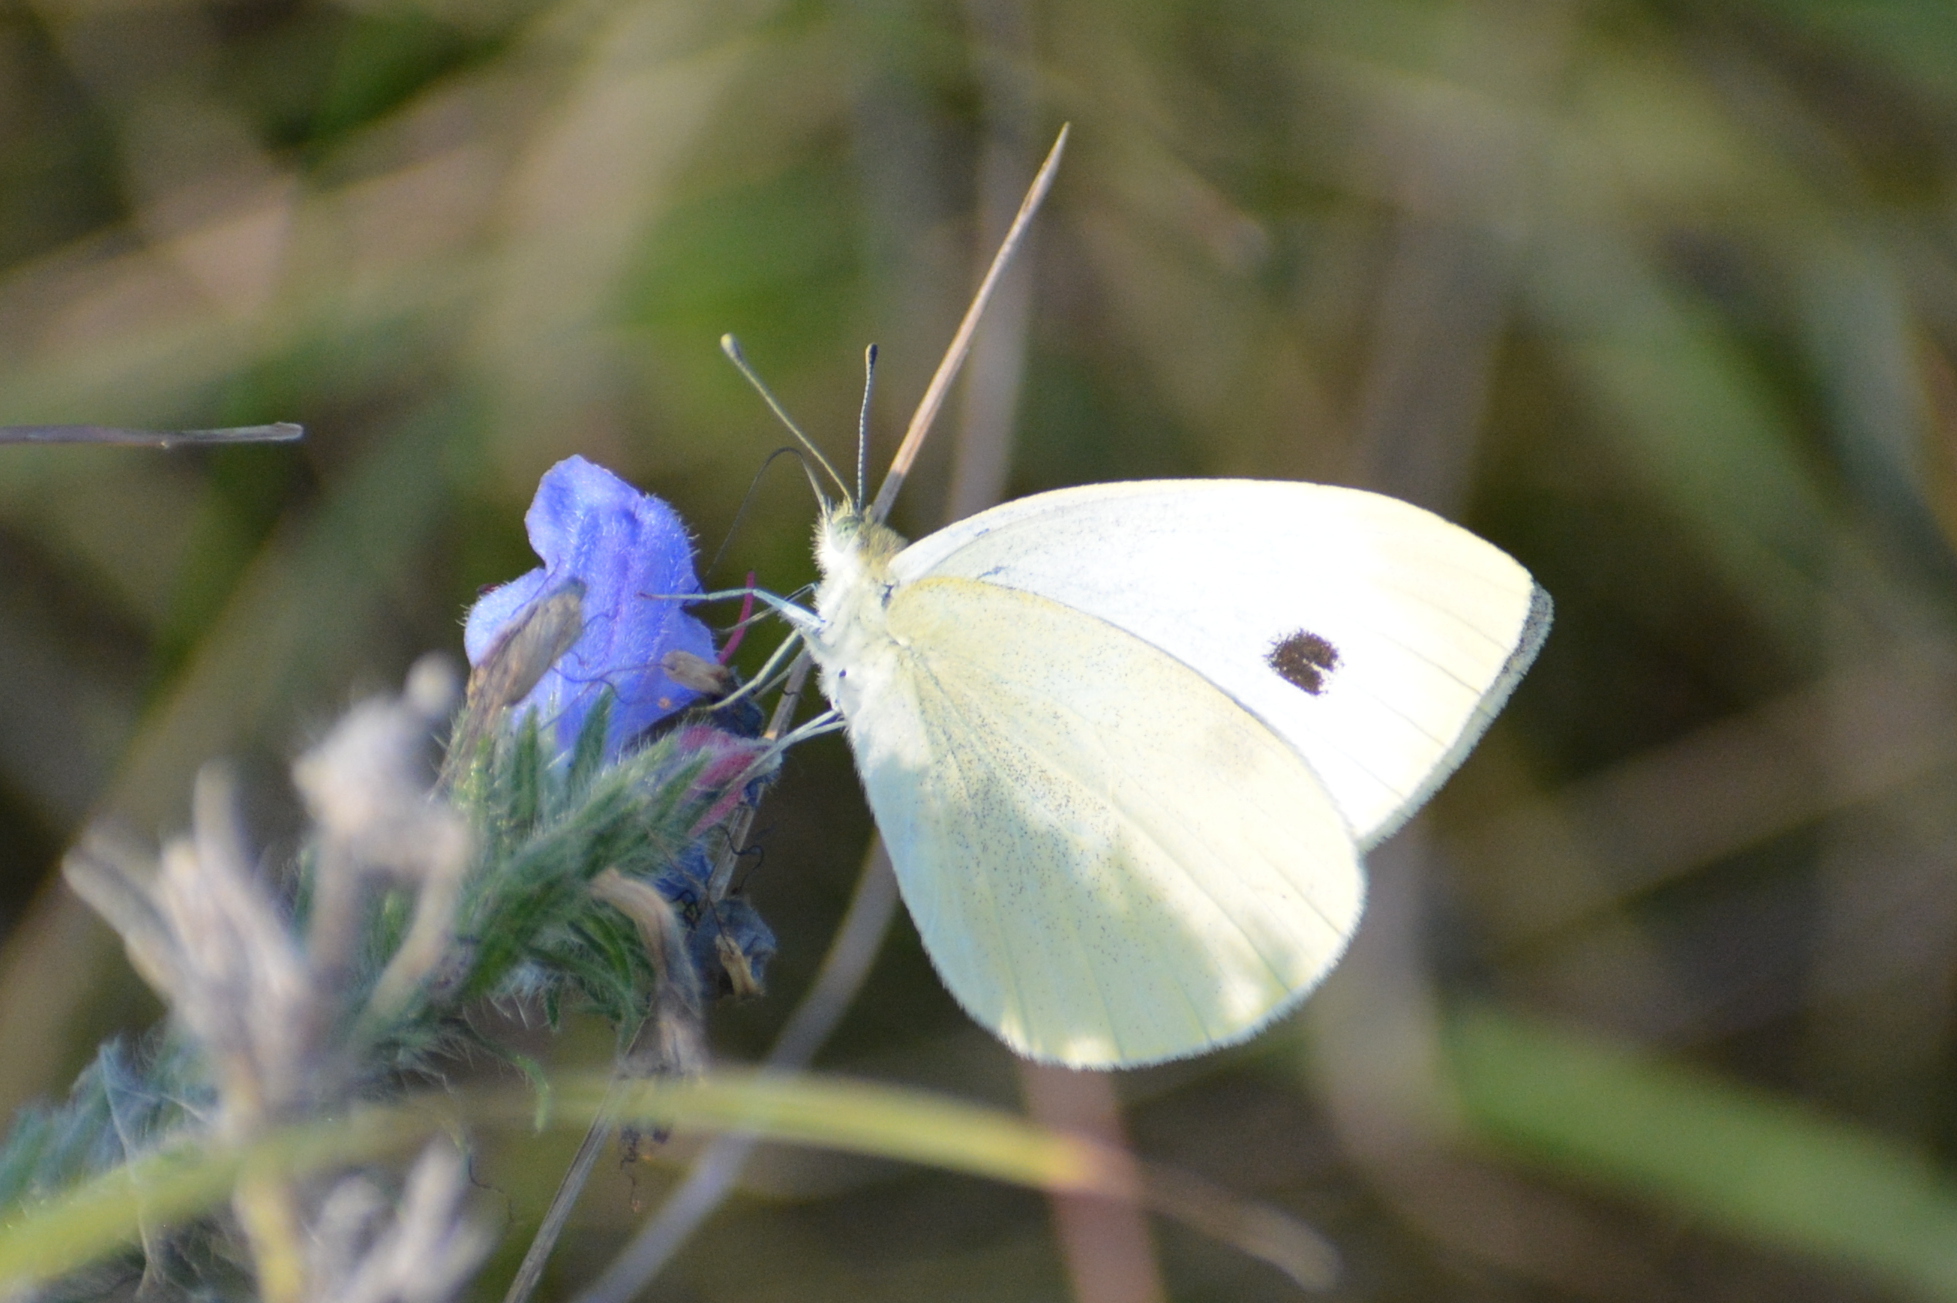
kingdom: Animalia
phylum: Arthropoda
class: Insecta
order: Lepidoptera
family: Pieridae
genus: Pieris
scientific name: Pieris rapae
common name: Small white
